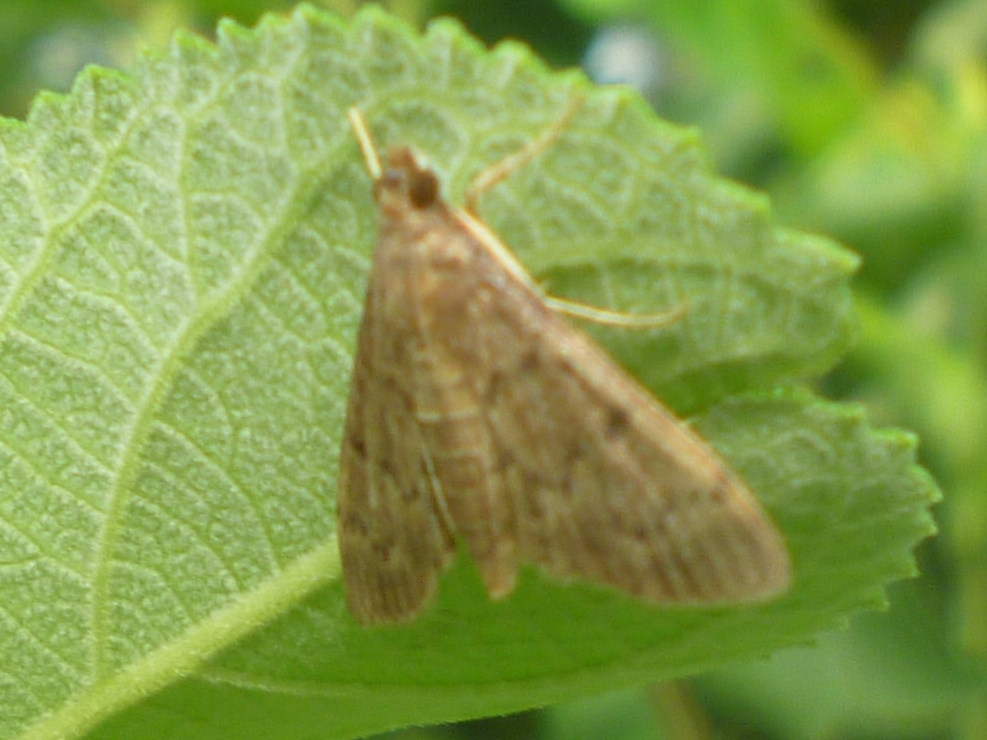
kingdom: Animalia
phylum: Arthropoda
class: Insecta
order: Lepidoptera
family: Crambidae
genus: Herpetogramma
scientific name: Herpetogramma phaeopteralis
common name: Dusky herpetogramma moth
